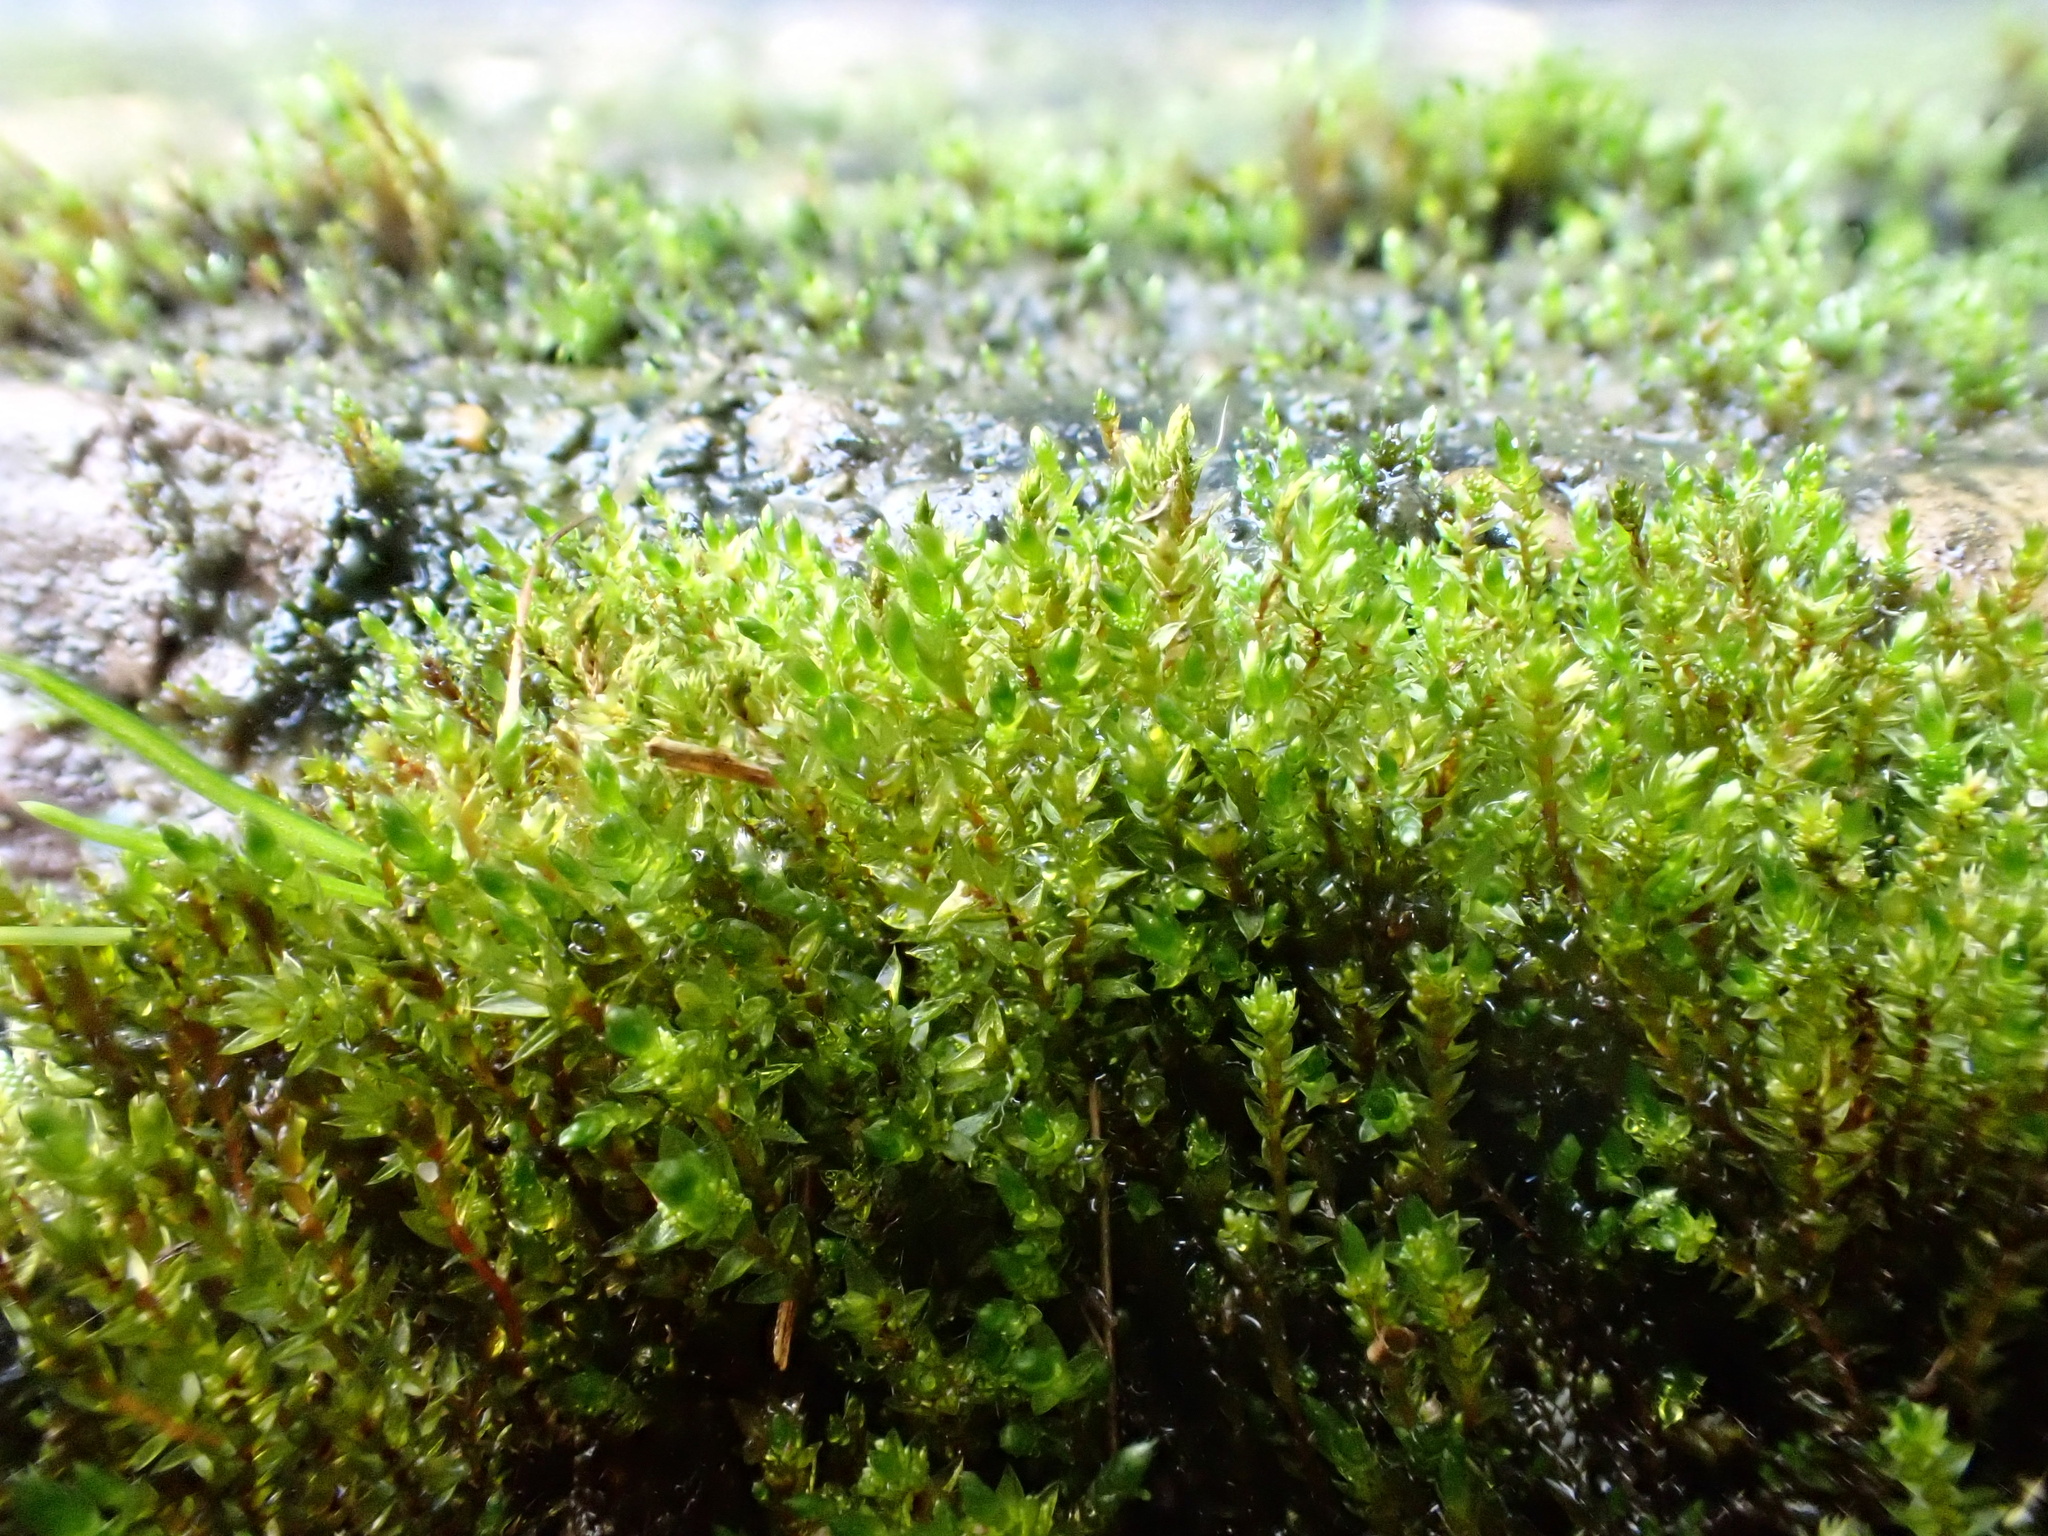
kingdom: Plantae
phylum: Bryophyta
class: Bryopsida
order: Bryales
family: Bryaceae
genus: Gemmabryum
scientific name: Gemmabryum
